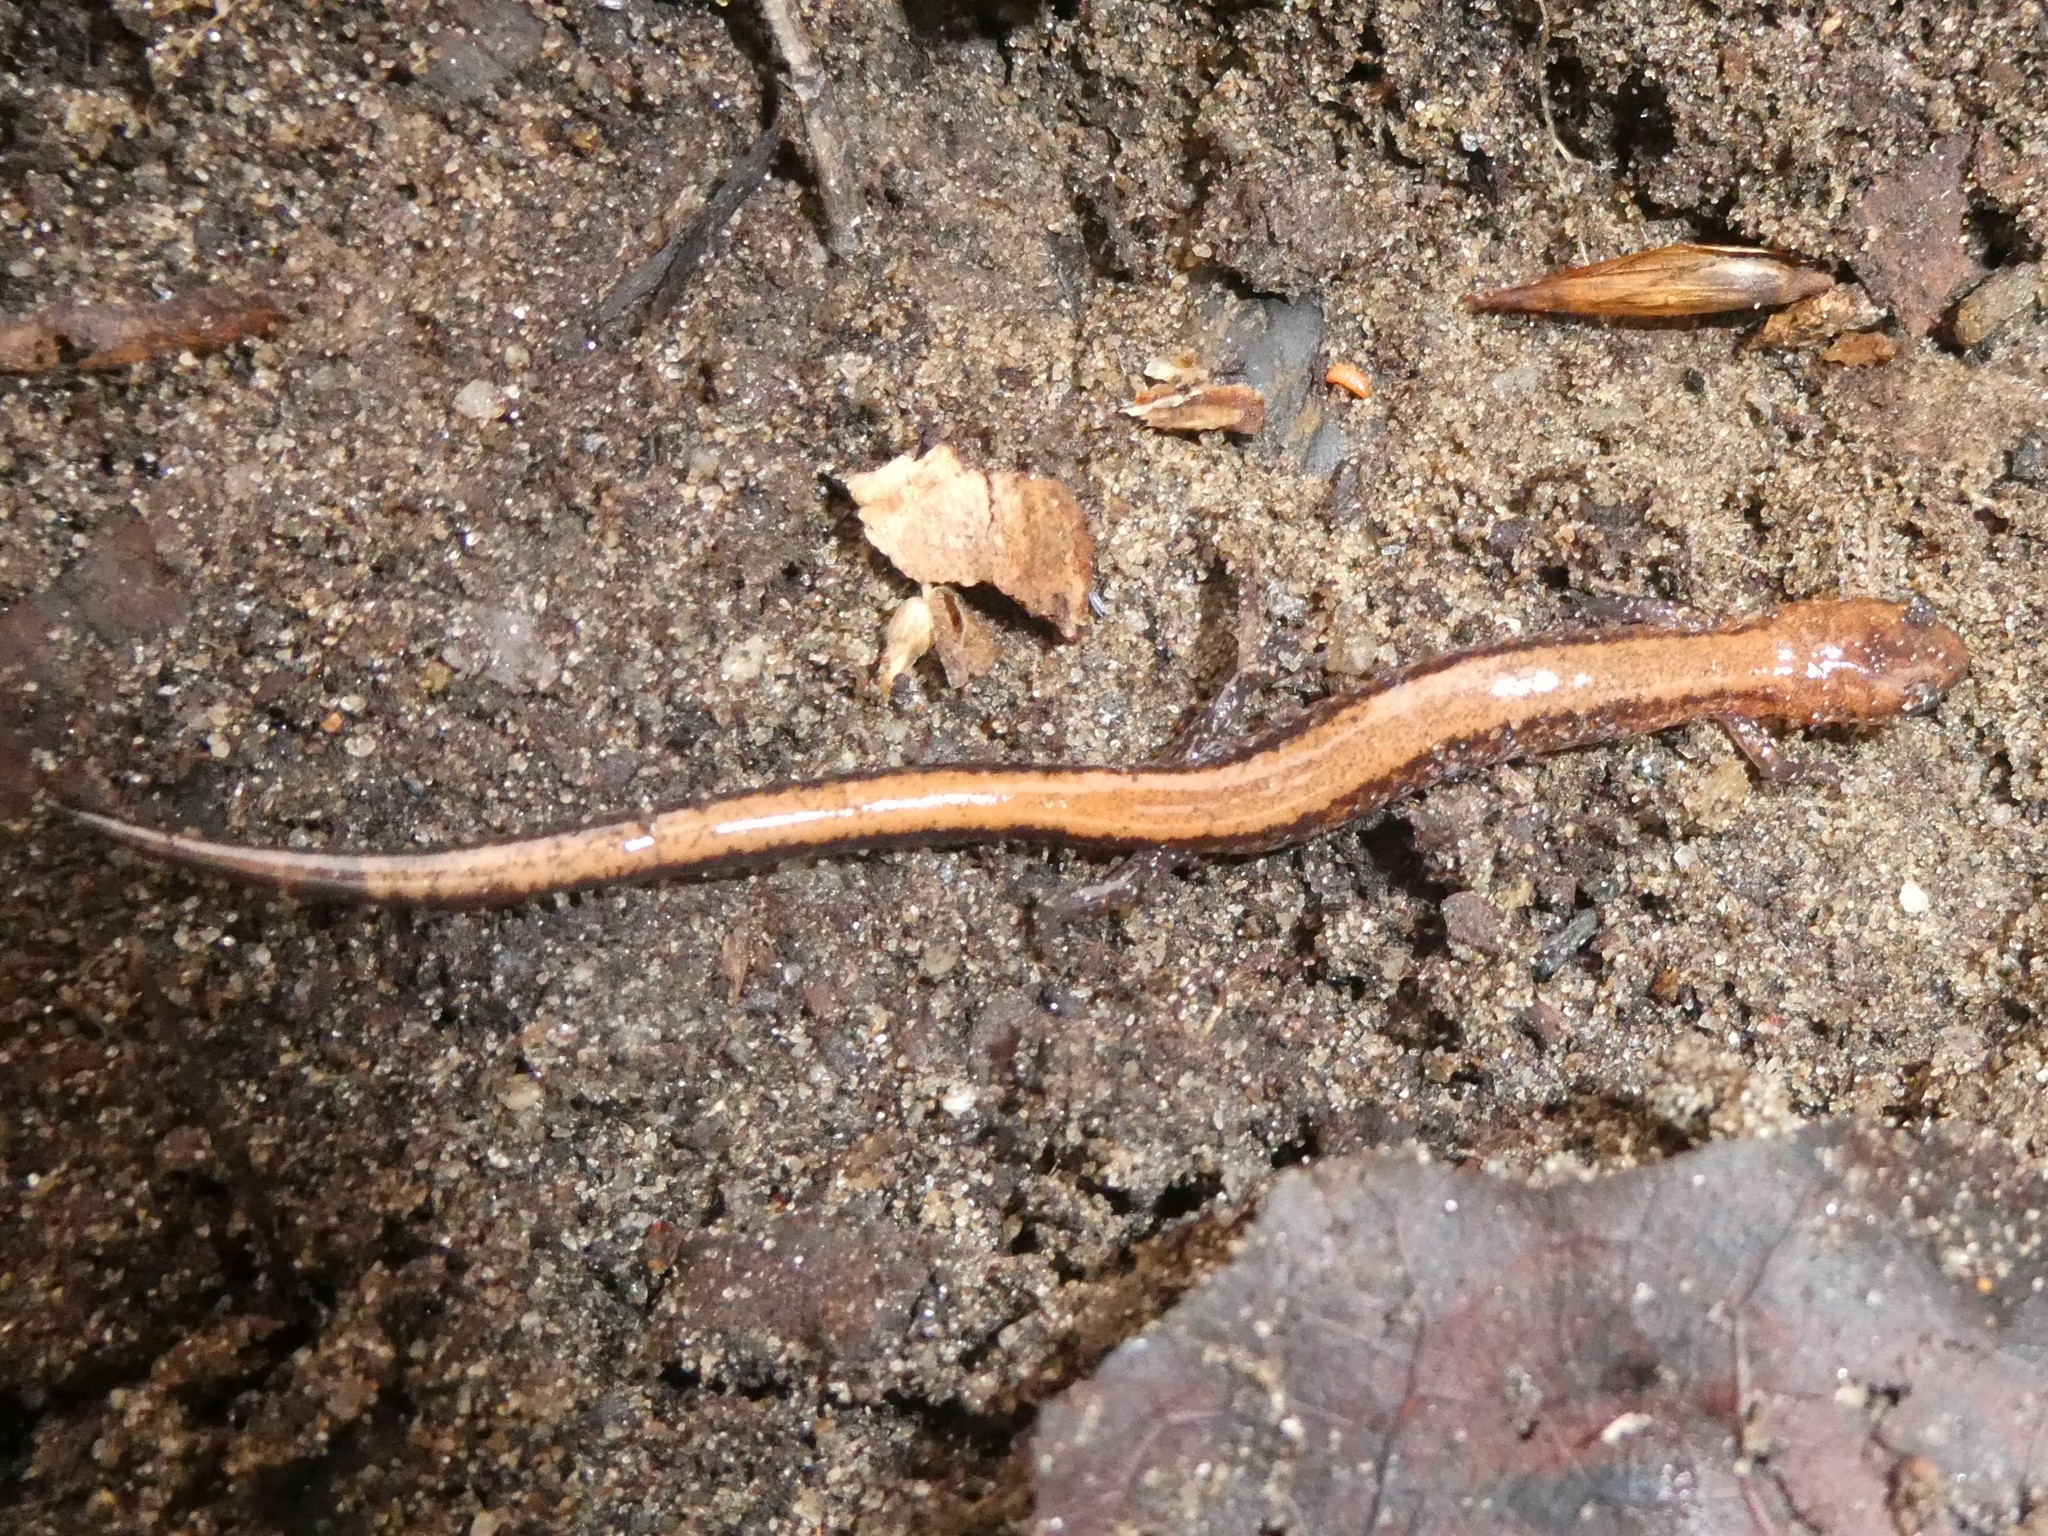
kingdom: Animalia
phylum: Chordata
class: Amphibia
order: Caudata
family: Plethodontidae
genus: Plethodon
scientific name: Plethodon cinereus
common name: Redback salamander
